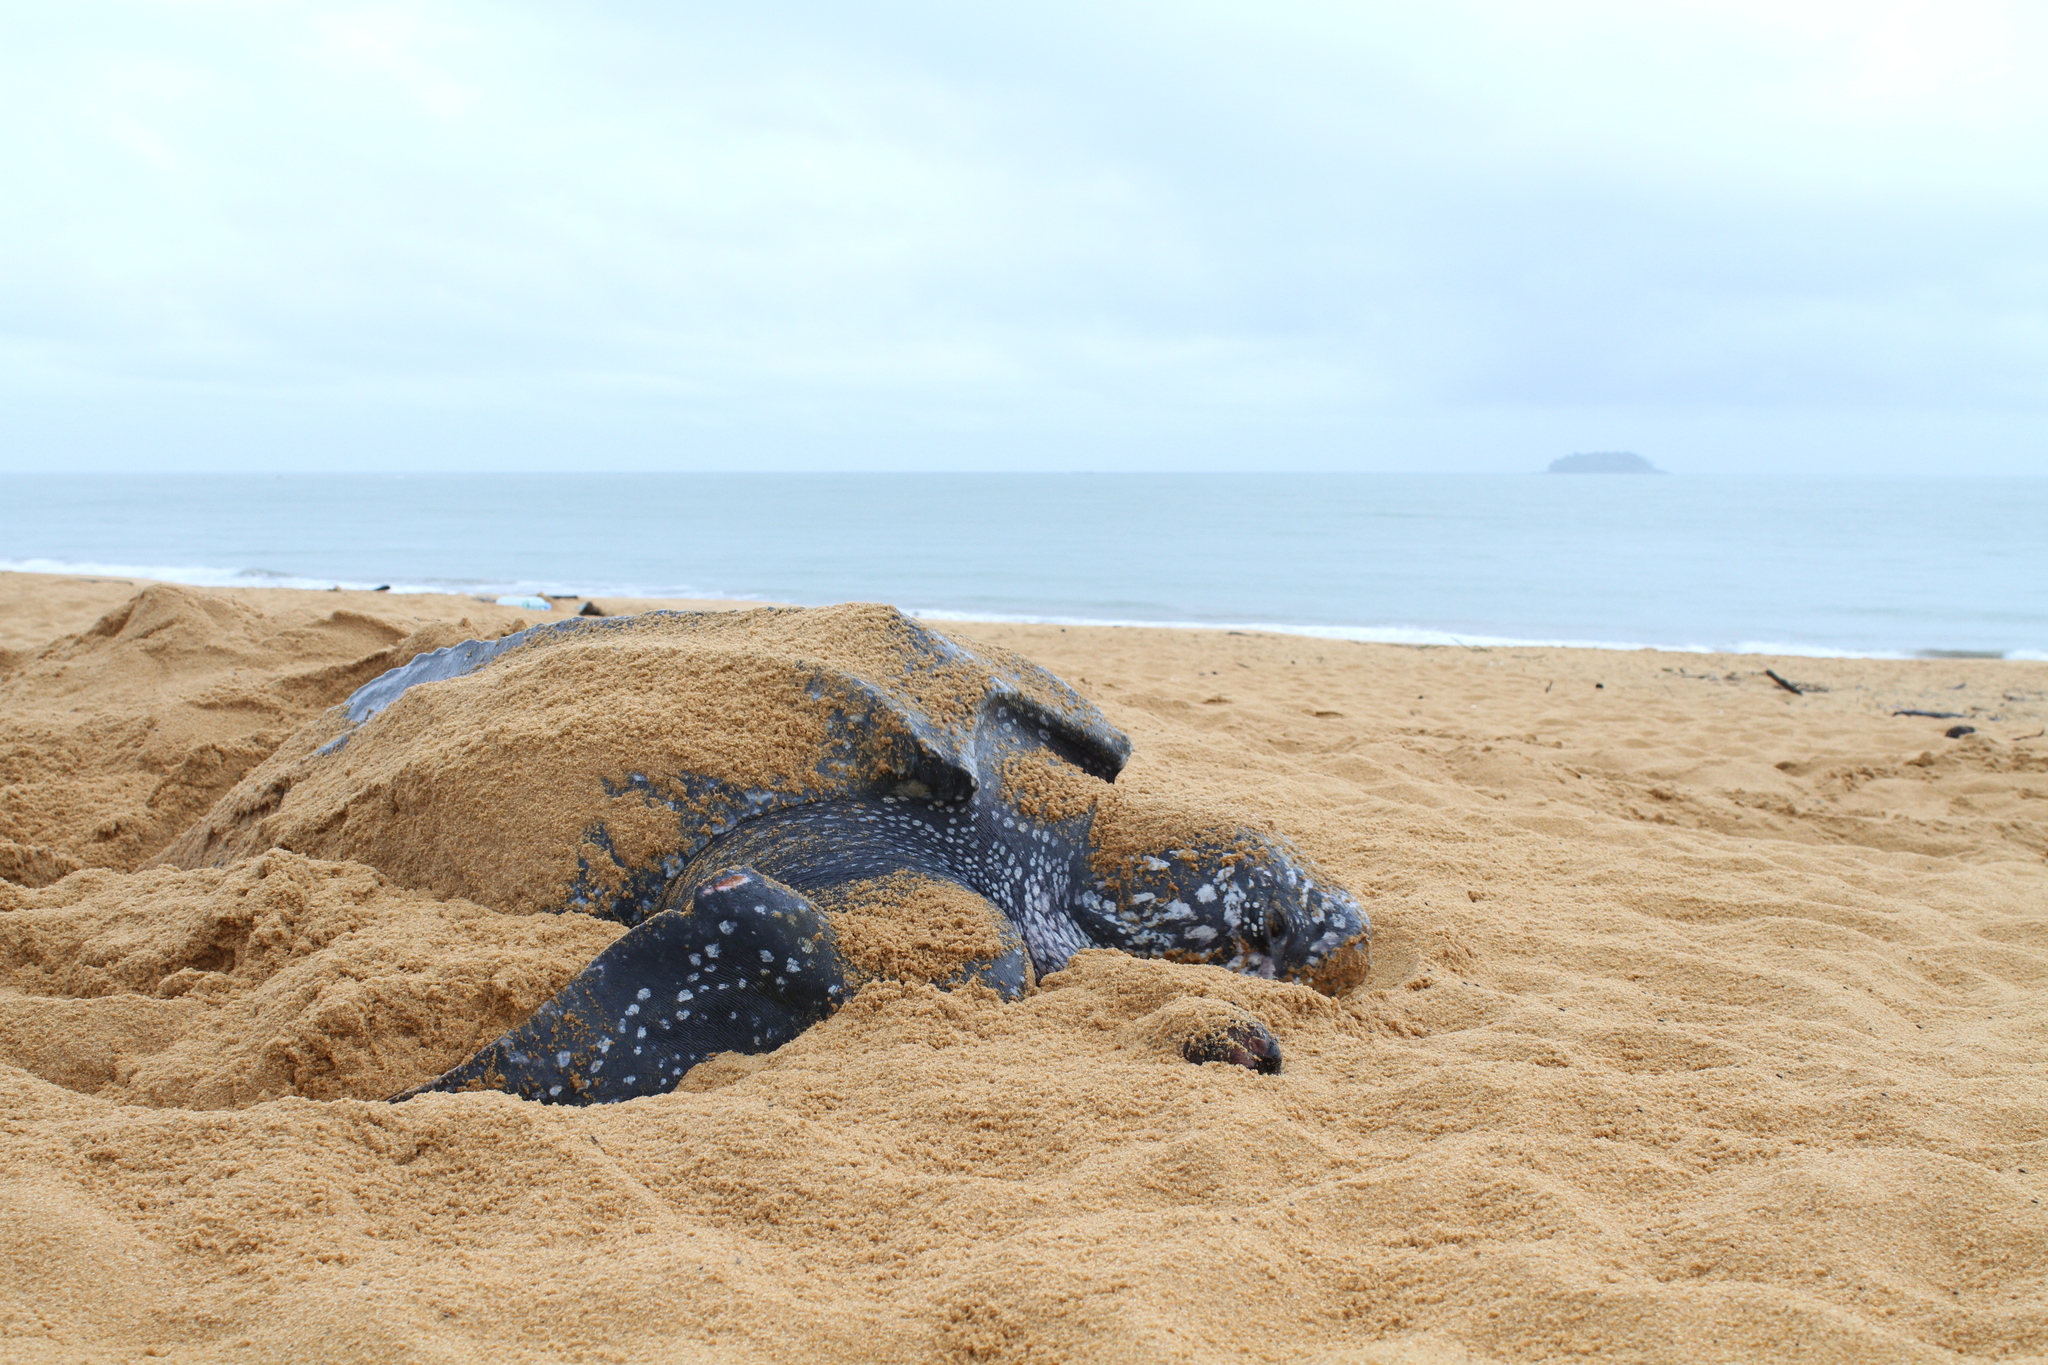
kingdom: Animalia
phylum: Chordata
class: Testudines
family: Dermochelyidae
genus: Dermochelys
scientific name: Dermochelys coriacea
